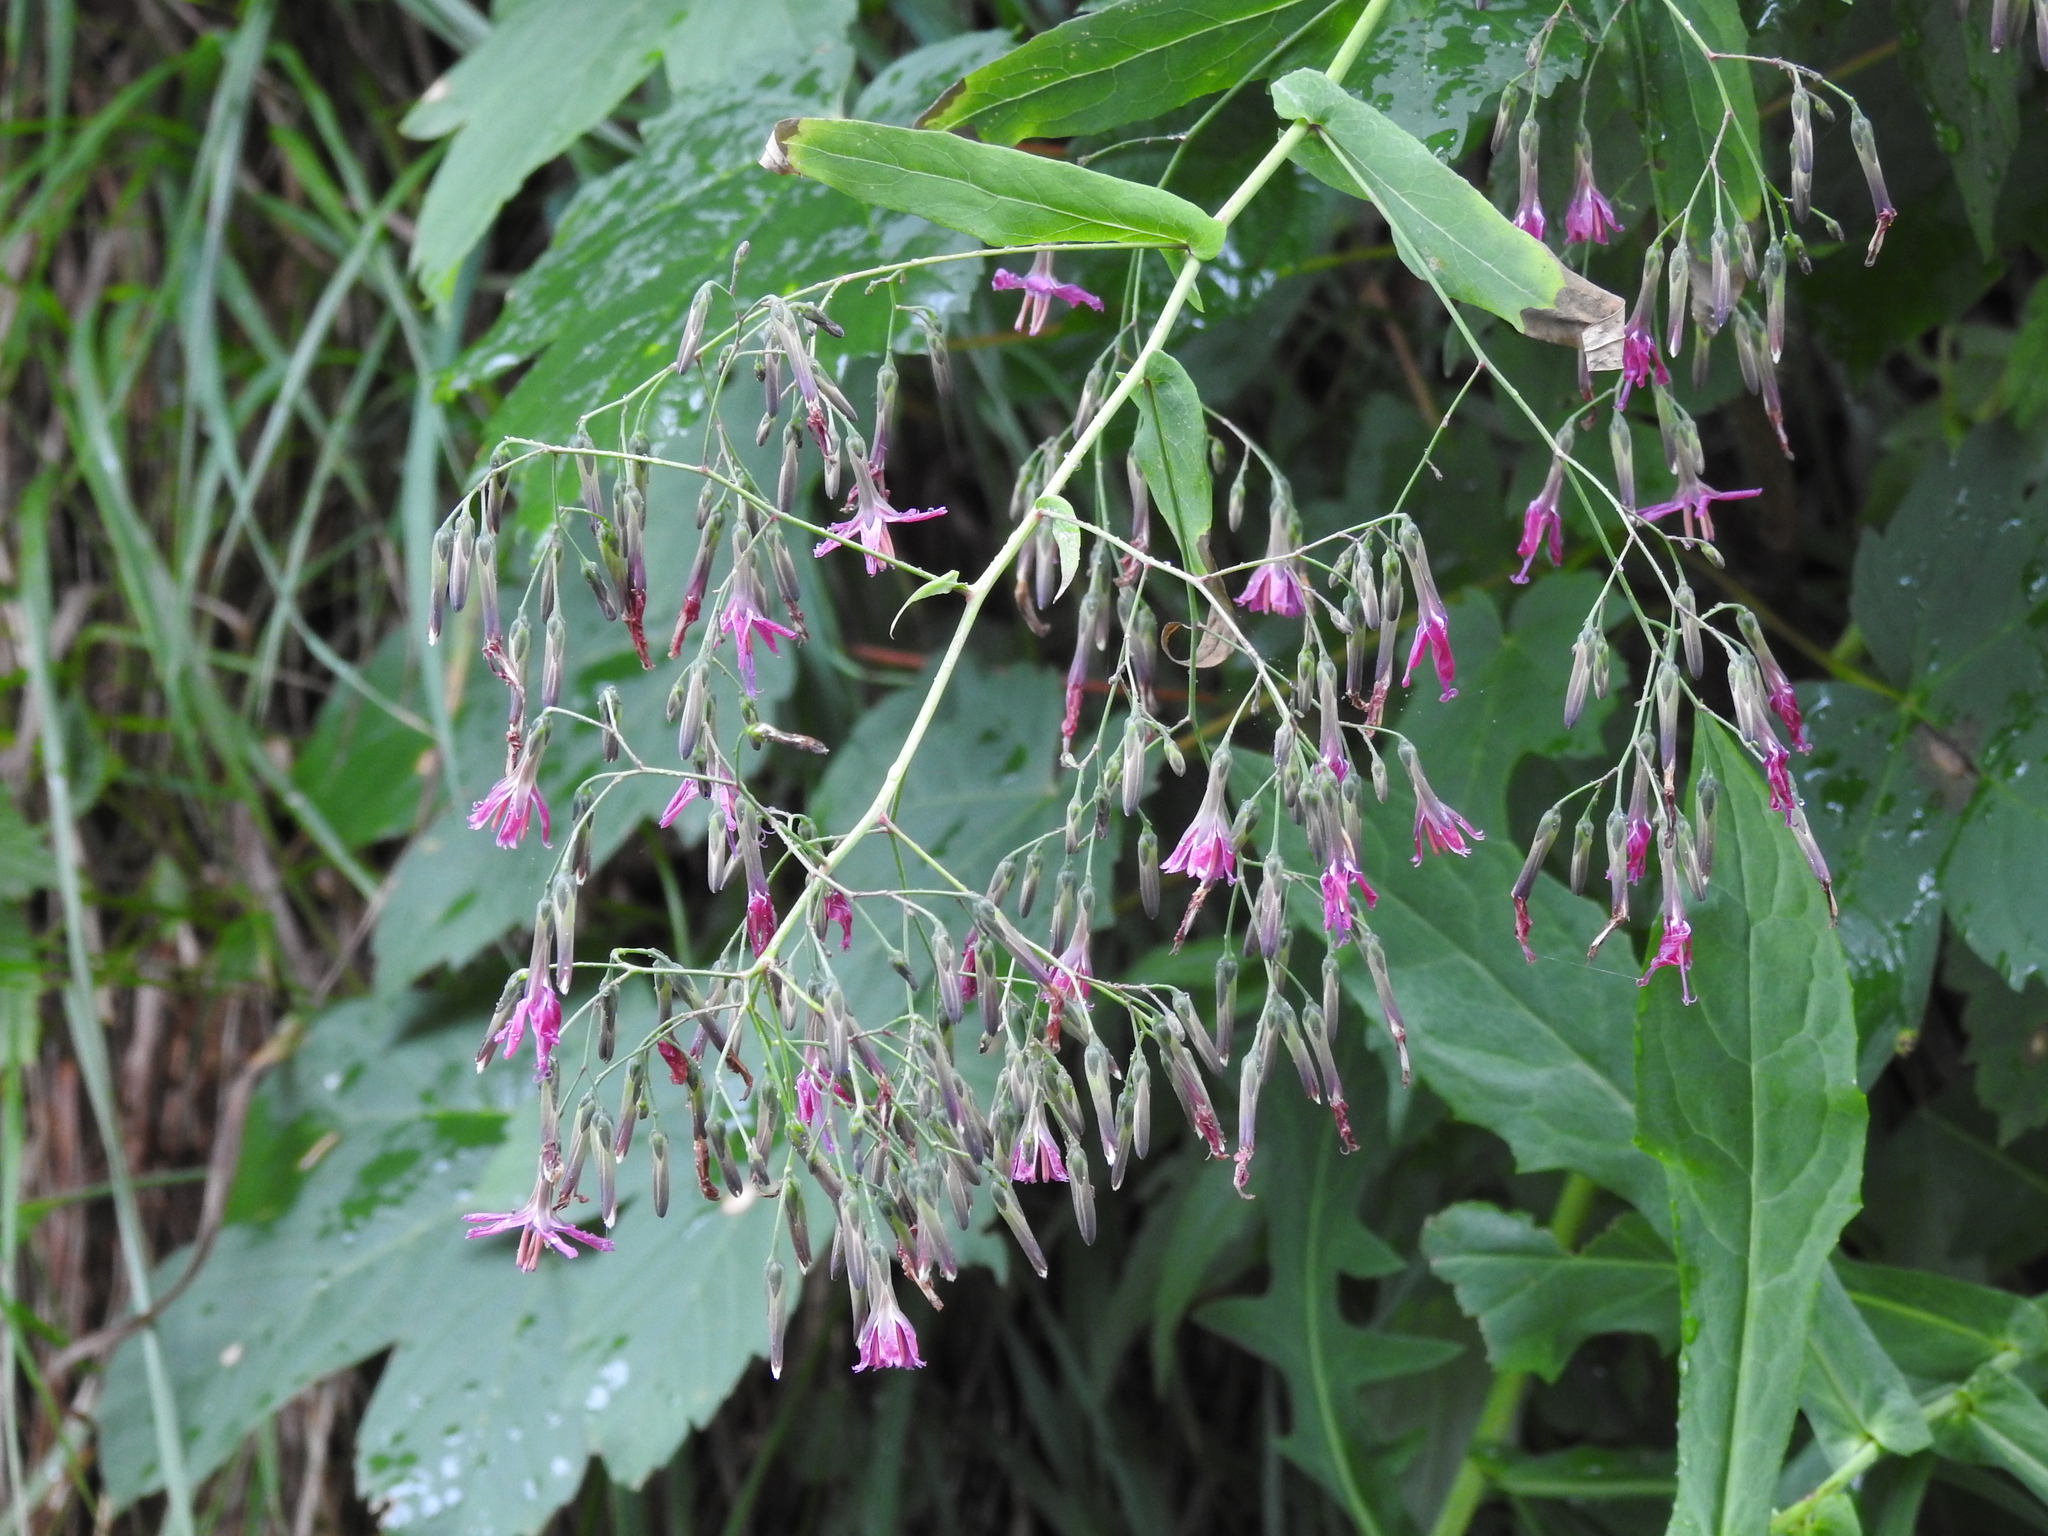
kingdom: Plantae
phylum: Tracheophyta
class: Magnoliopsida
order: Asterales
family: Asteraceae
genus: Prenanthes
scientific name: Prenanthes purpurea
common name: Purple lettuce
